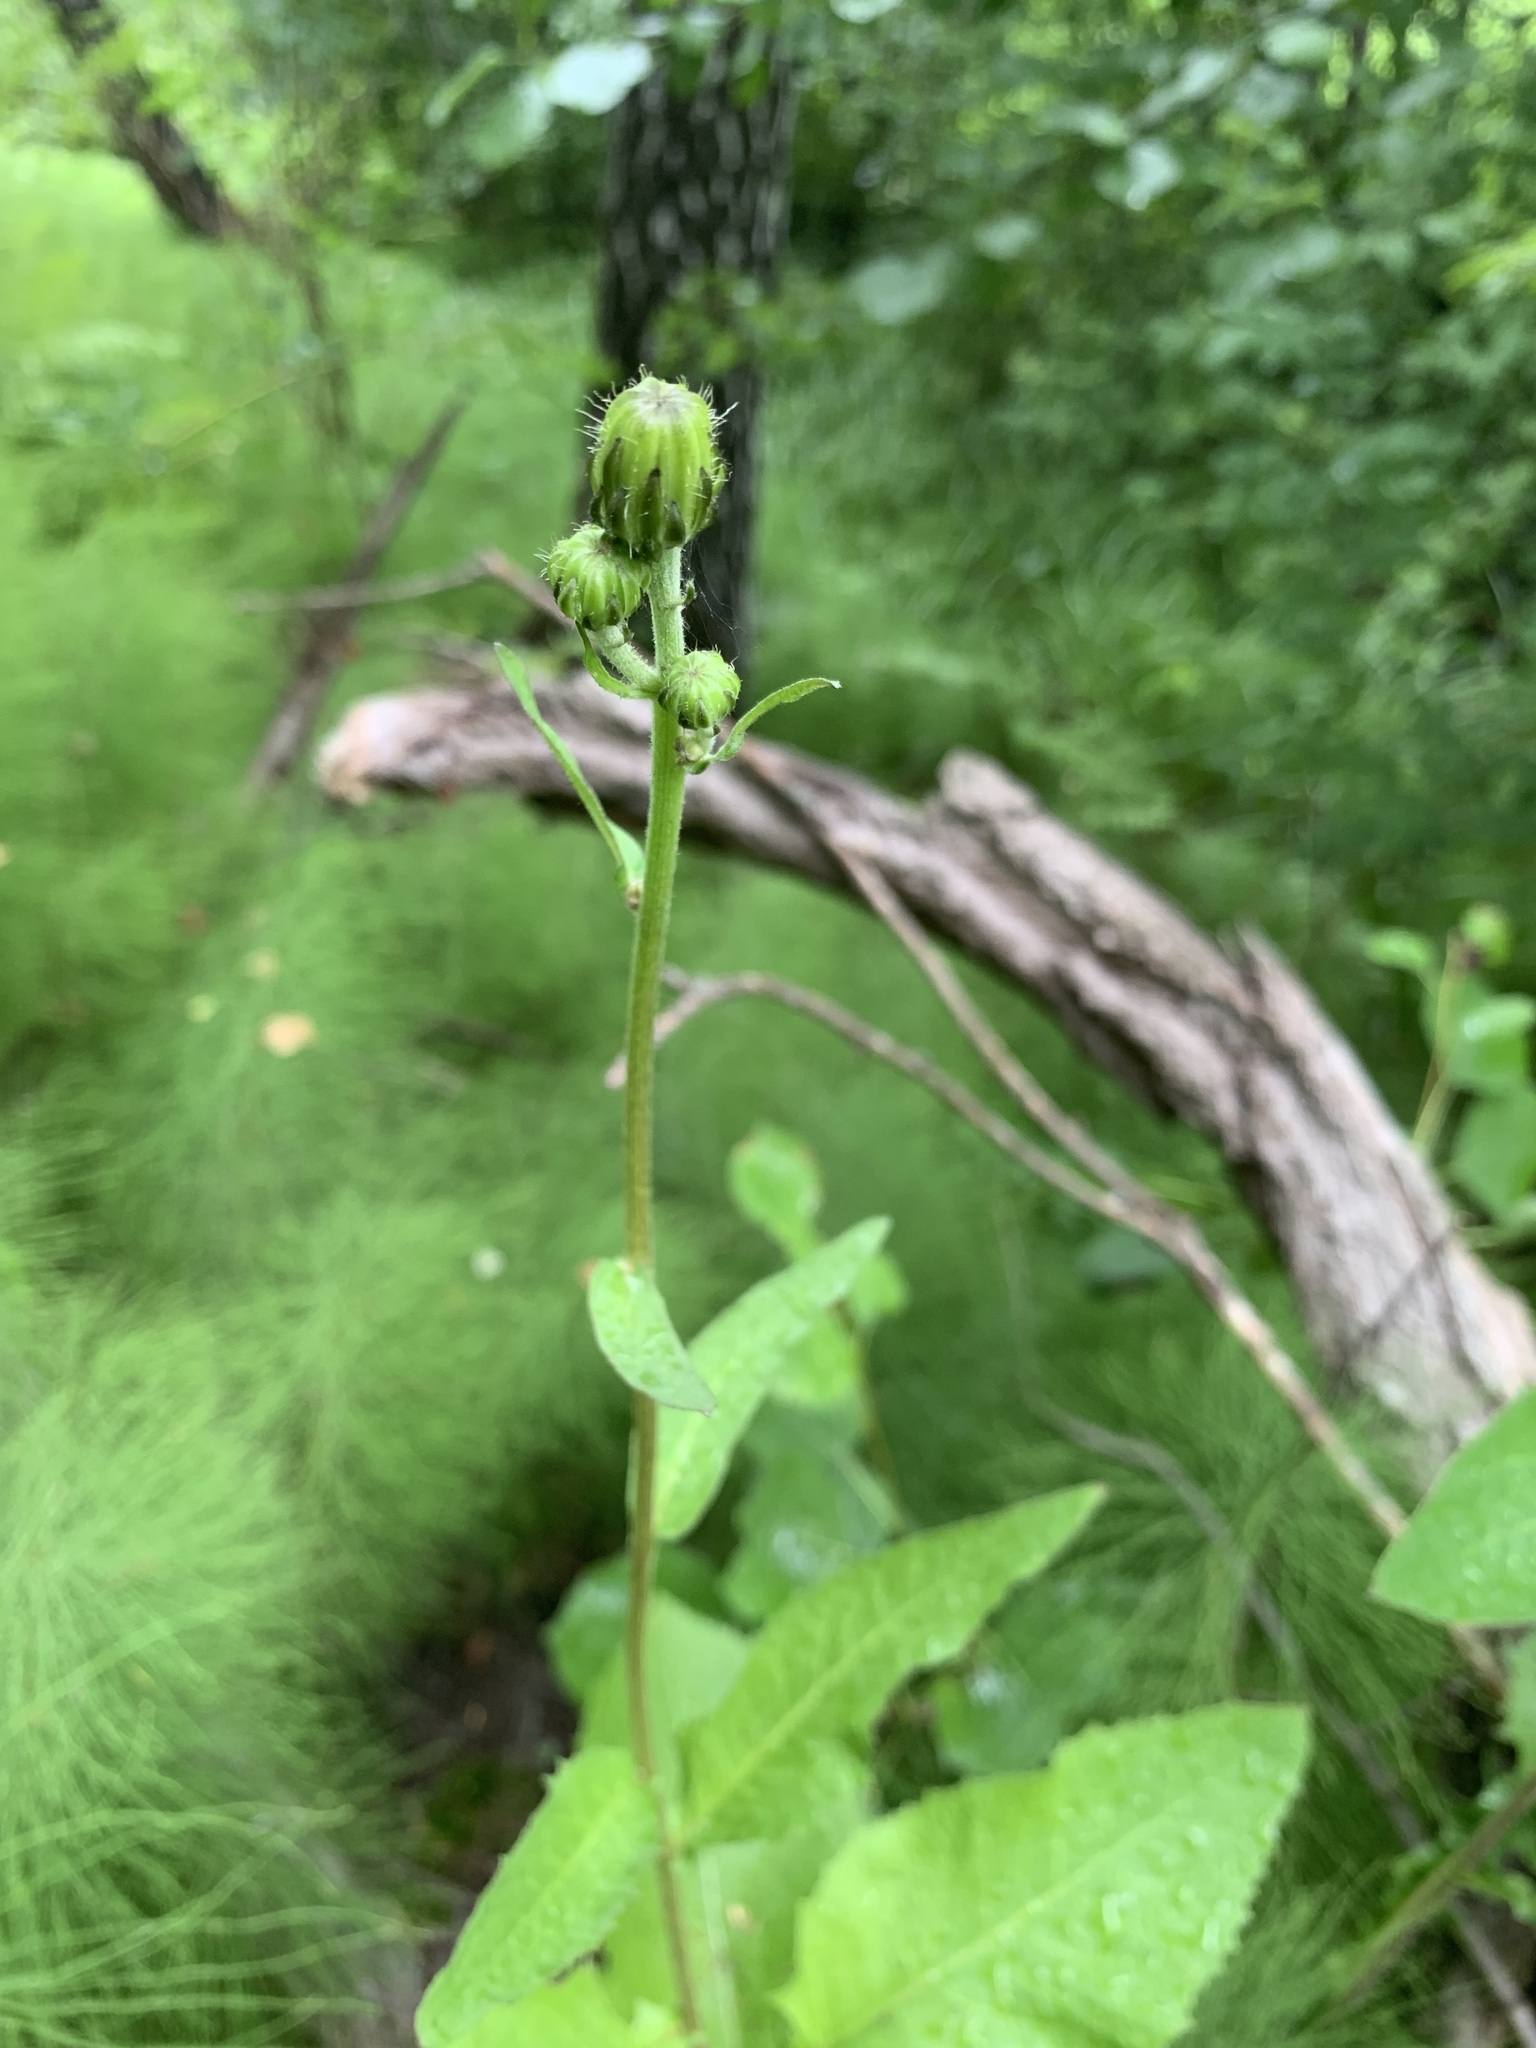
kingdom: Plantae
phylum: Tracheophyta
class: Magnoliopsida
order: Asterales
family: Asteraceae
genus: Crepis
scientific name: Crepis sibirica
